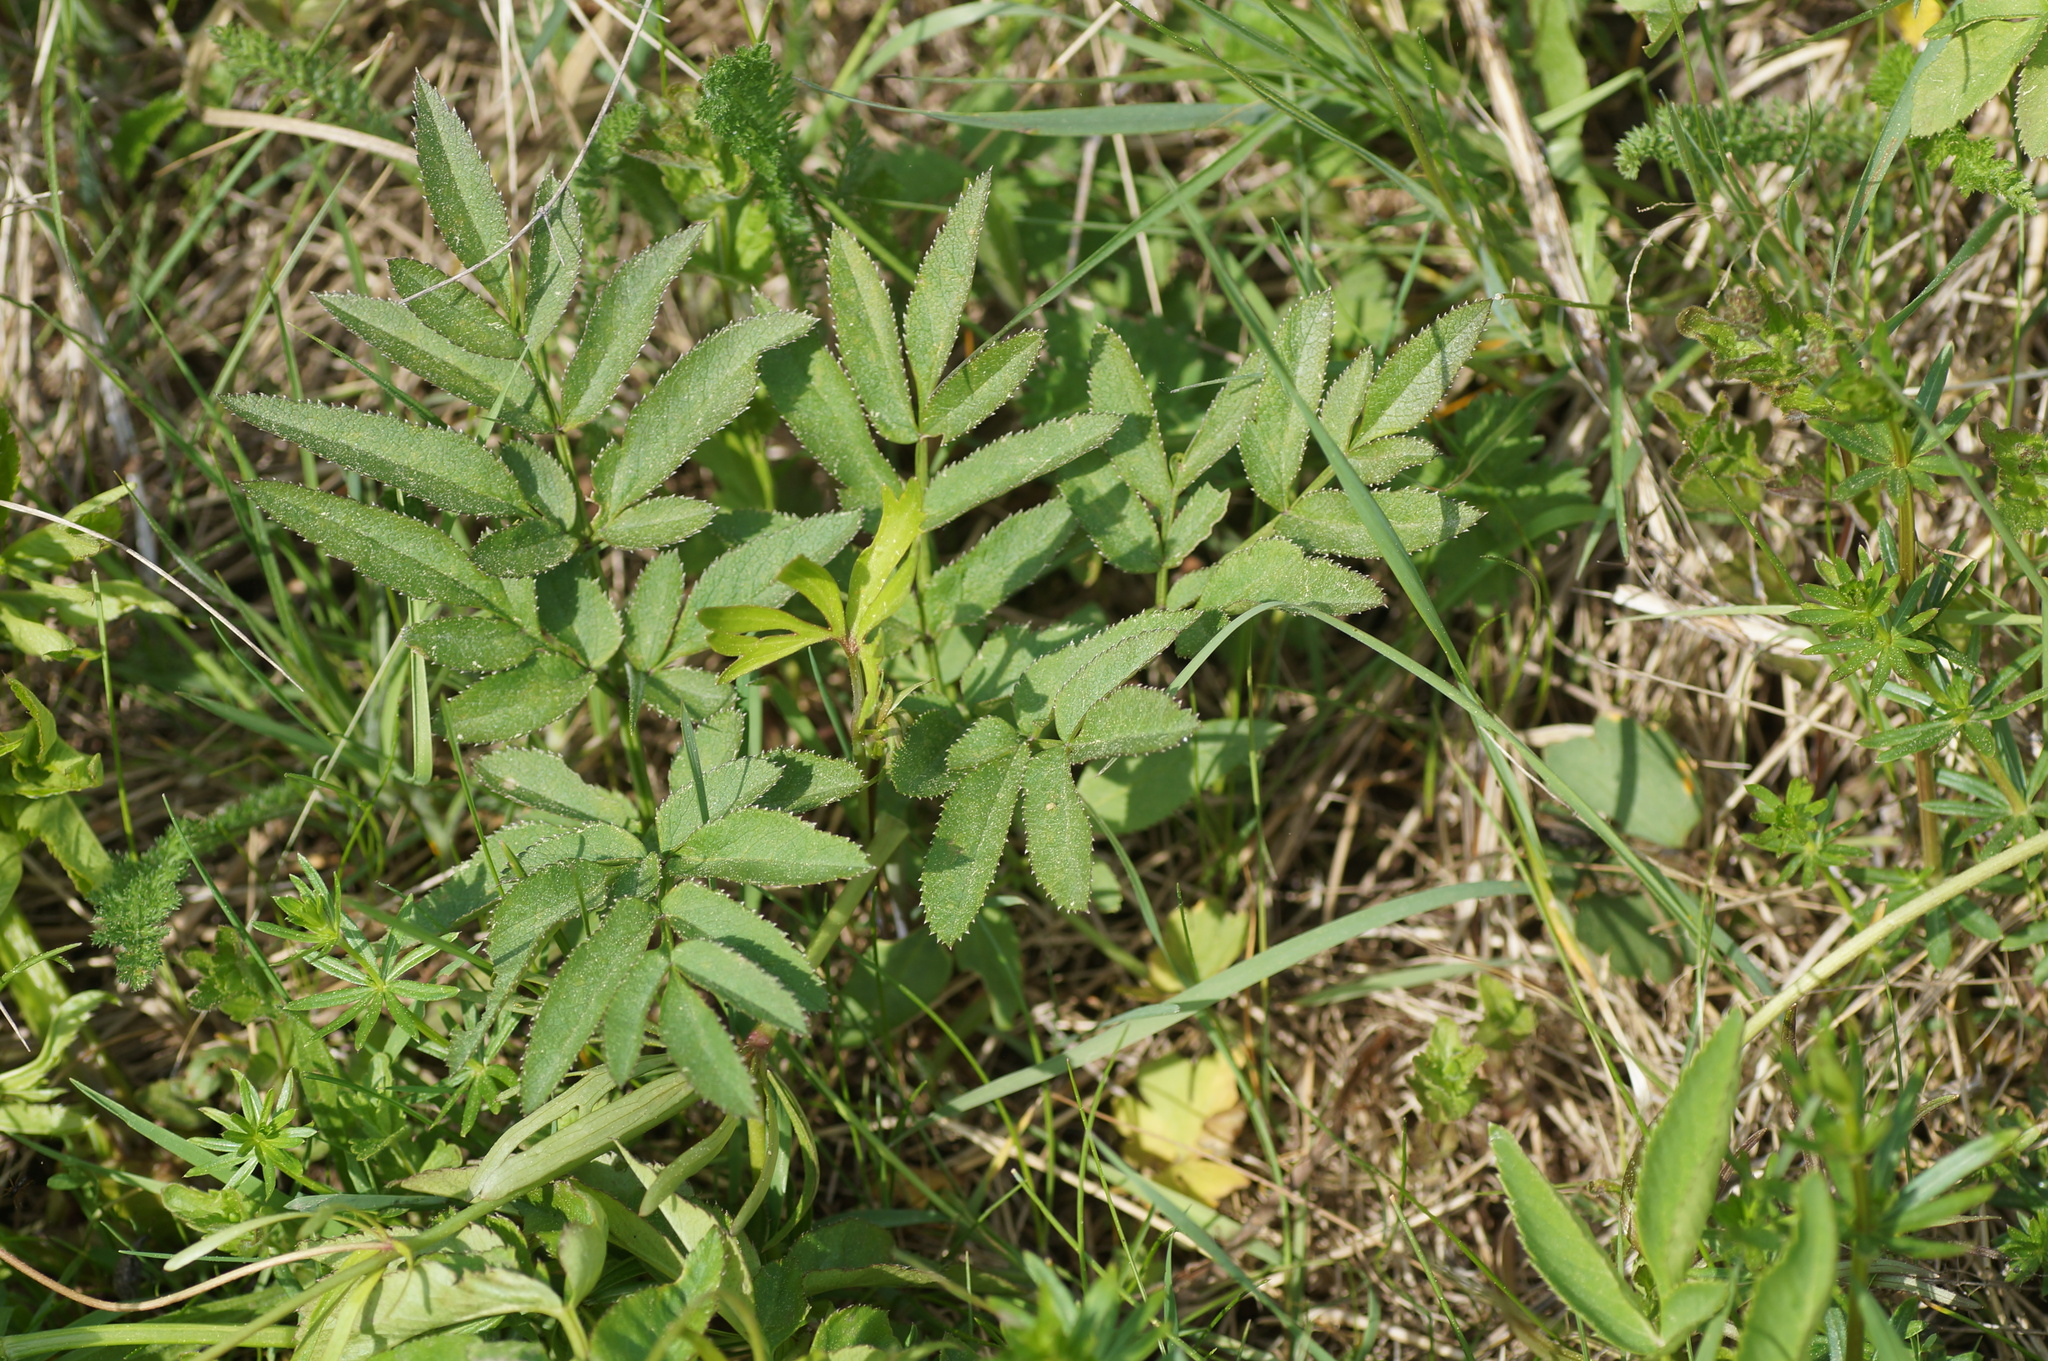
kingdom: Plantae
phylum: Tracheophyta
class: Magnoliopsida
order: Apiales
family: Apiaceae
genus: Angelica
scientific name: Angelica sylvestris
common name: Wild angelica
